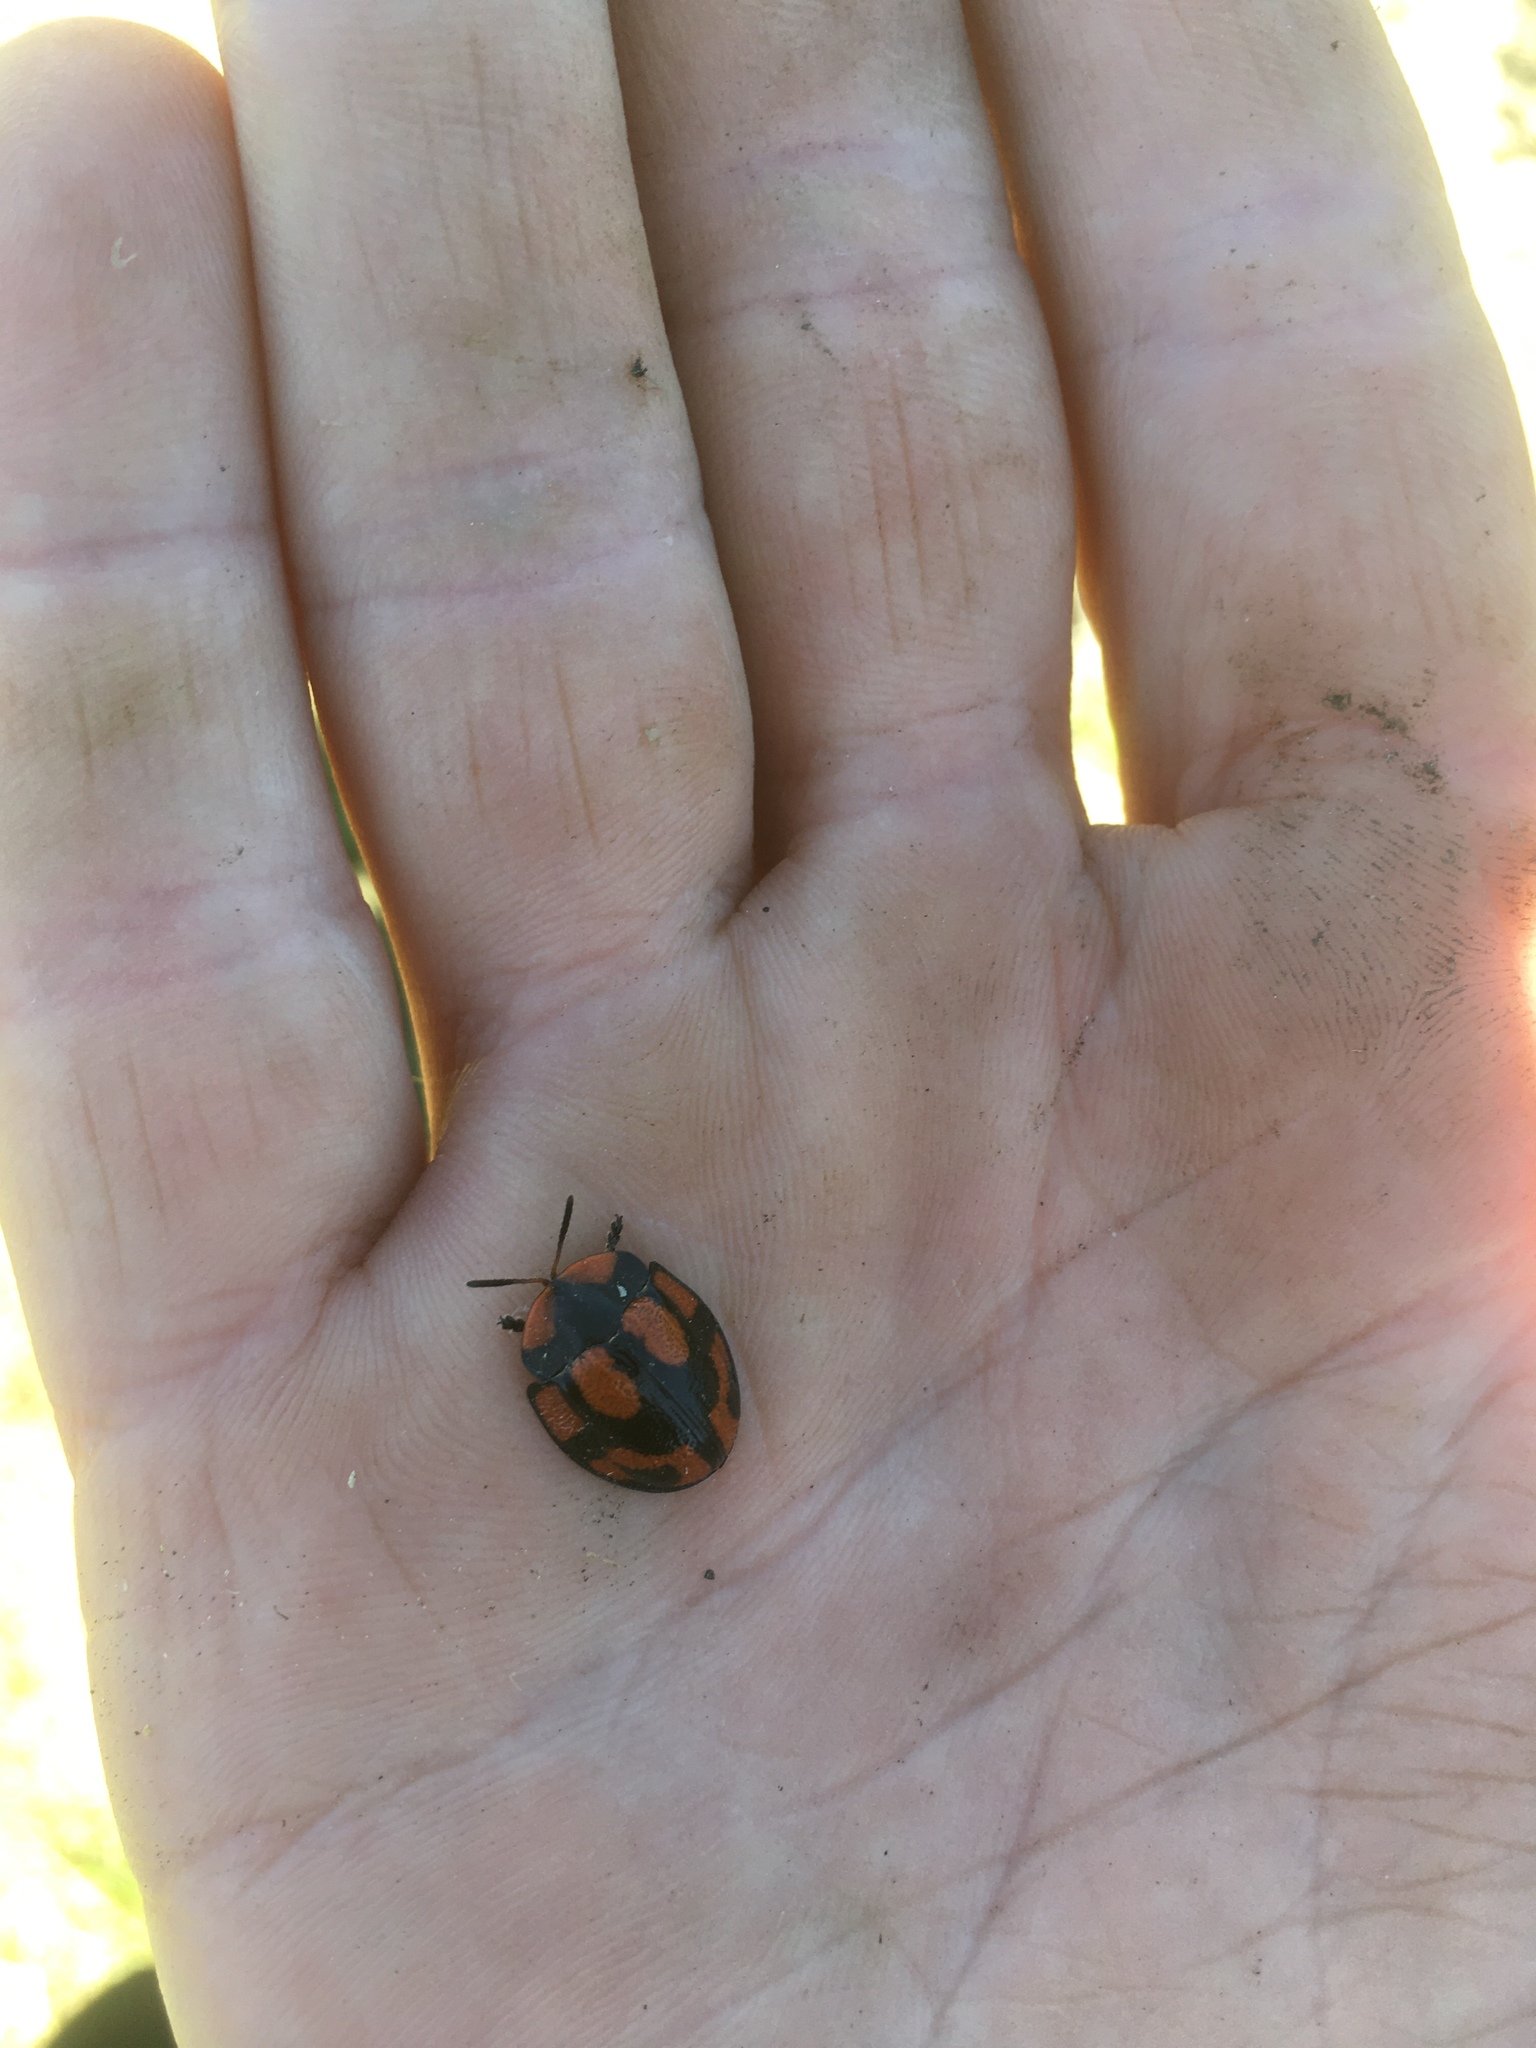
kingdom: Animalia
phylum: Arthropoda
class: Insecta
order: Coleoptera
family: Chrysomelidae
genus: Botanochara
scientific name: Botanochara angulata
